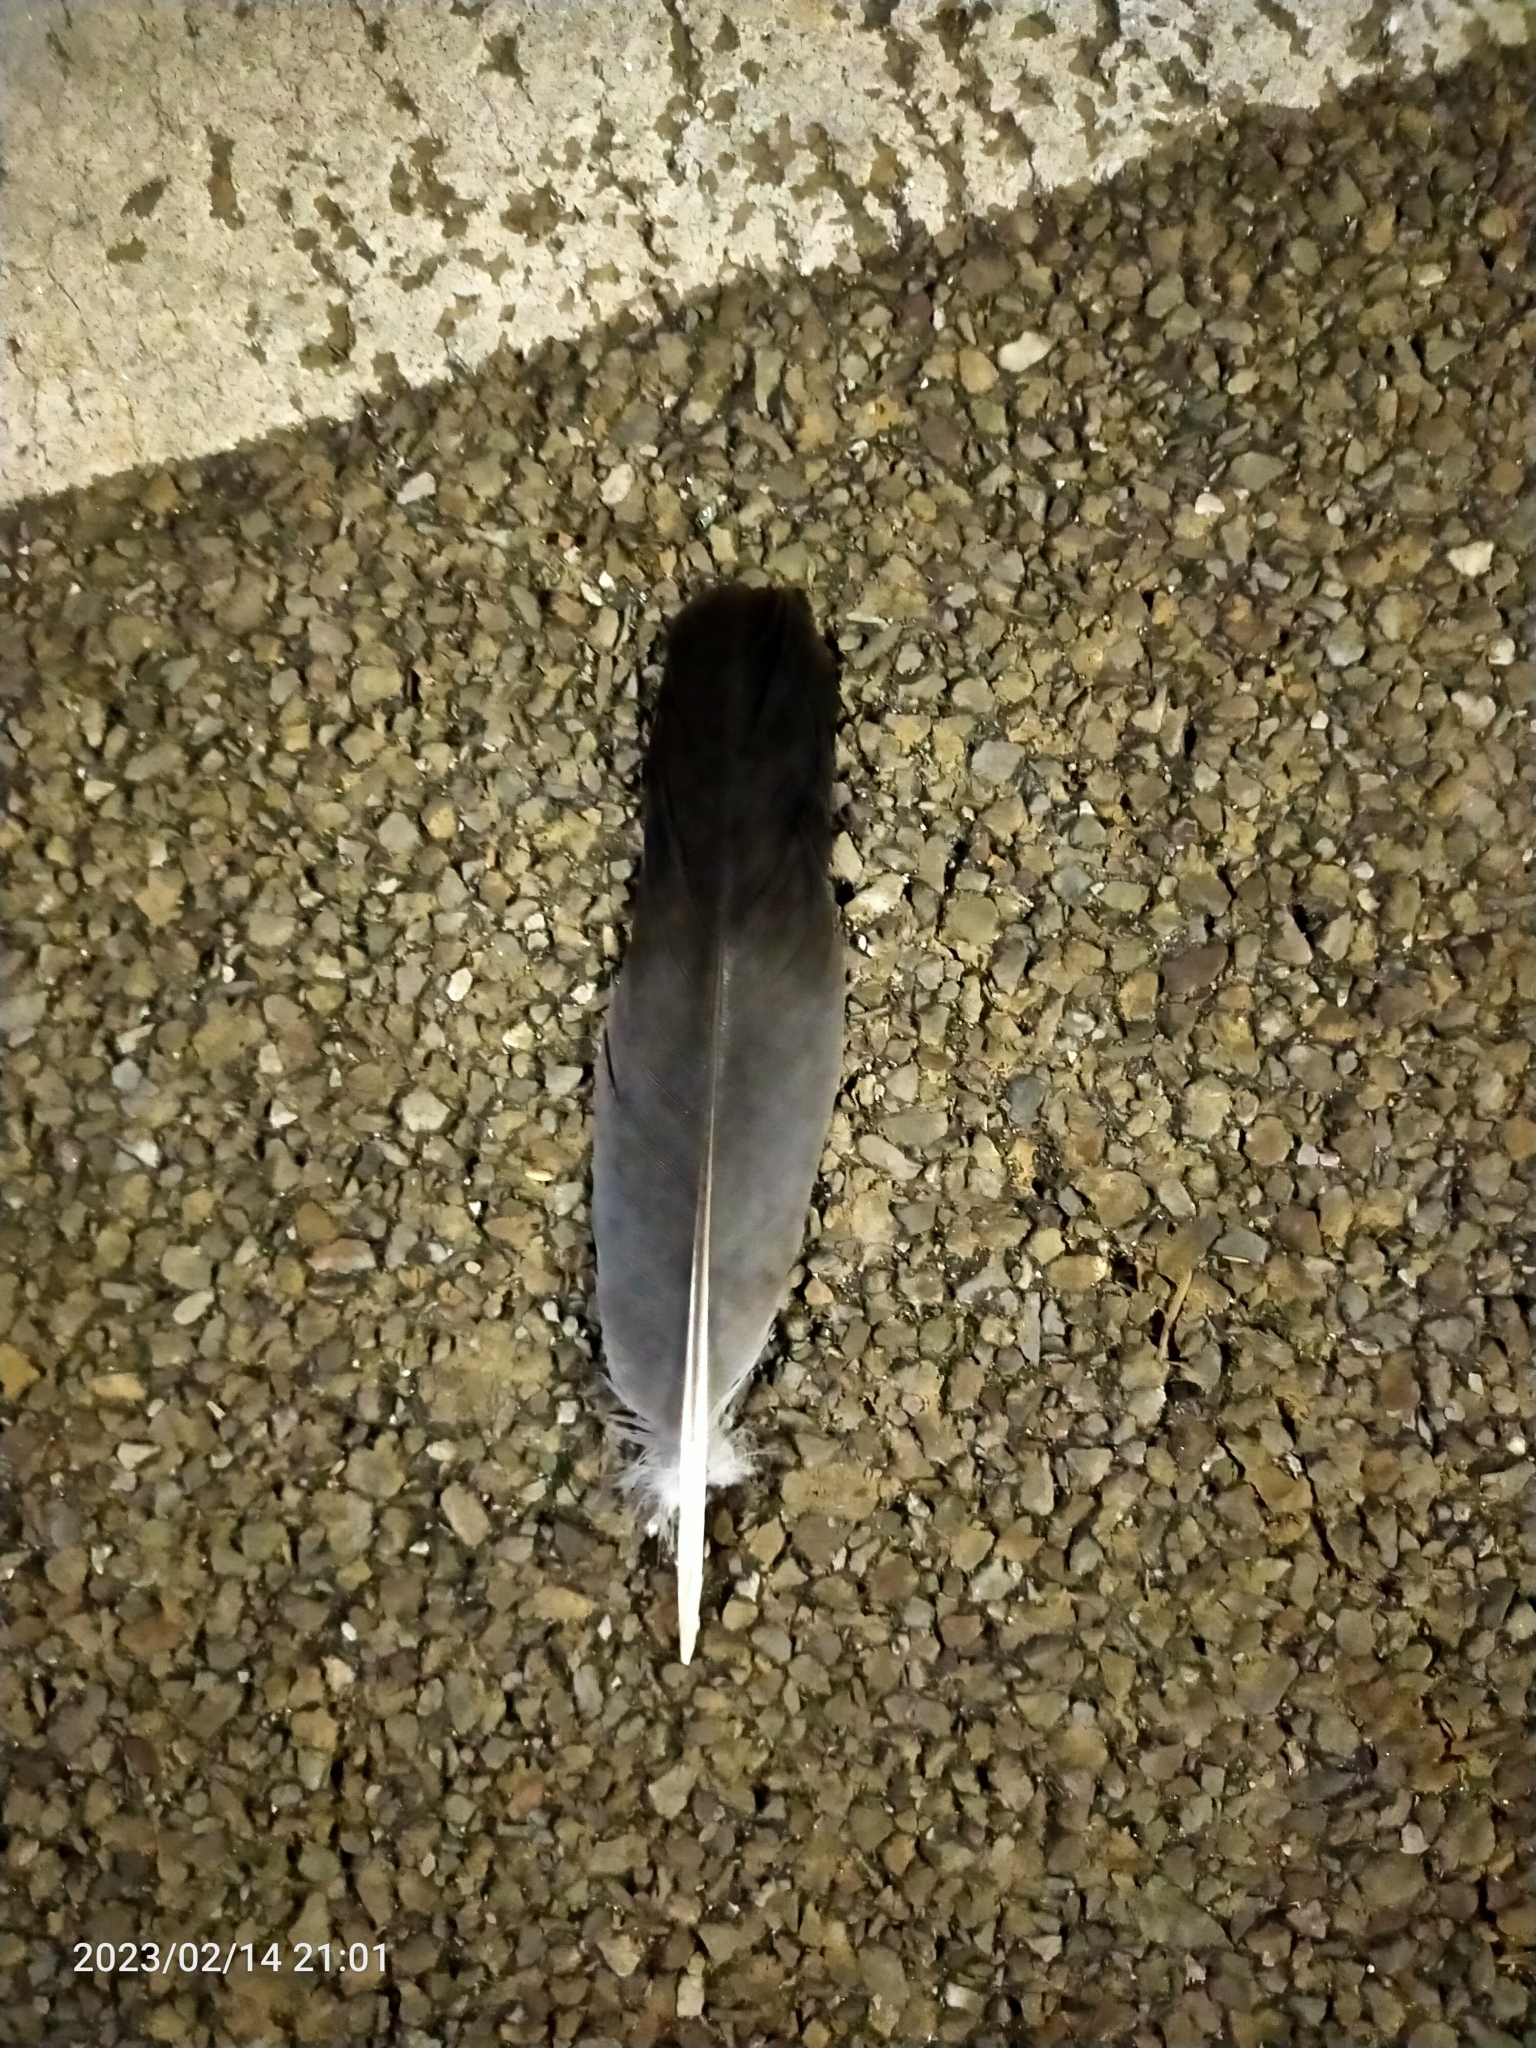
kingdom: Animalia
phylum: Chordata
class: Aves
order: Columbiformes
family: Columbidae
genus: Columba
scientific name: Columba palumbus
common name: Common wood pigeon
